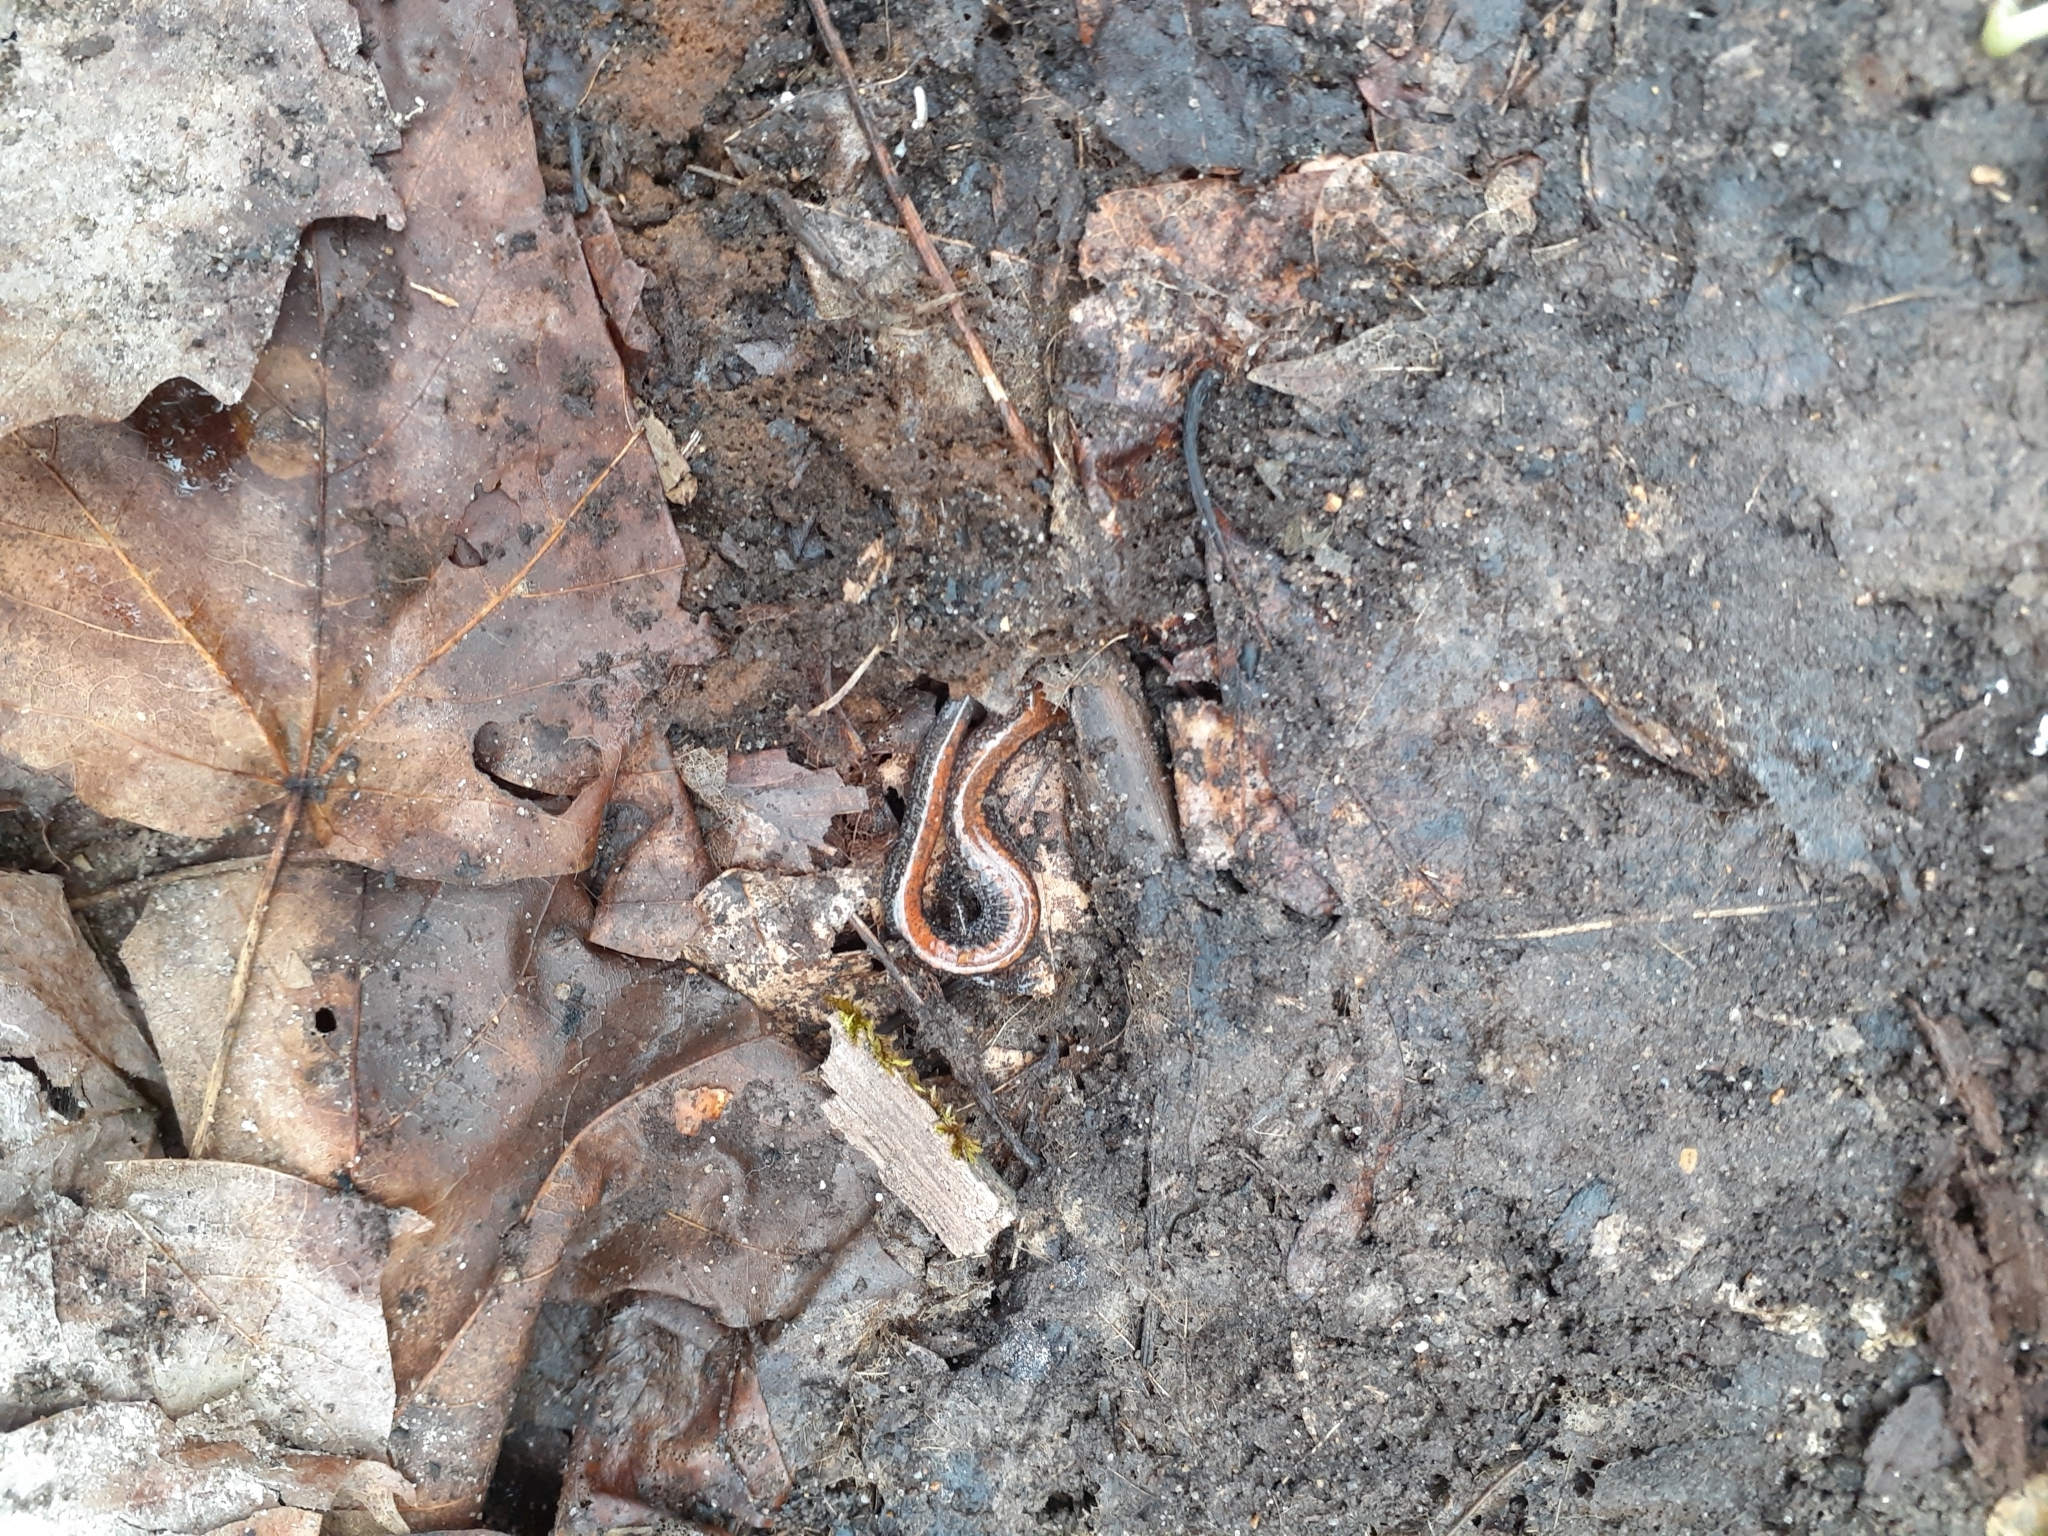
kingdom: Animalia
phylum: Chordata
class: Amphibia
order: Caudata
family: Plethodontidae
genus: Plethodon
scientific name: Plethodon cinereus
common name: Redback salamander
